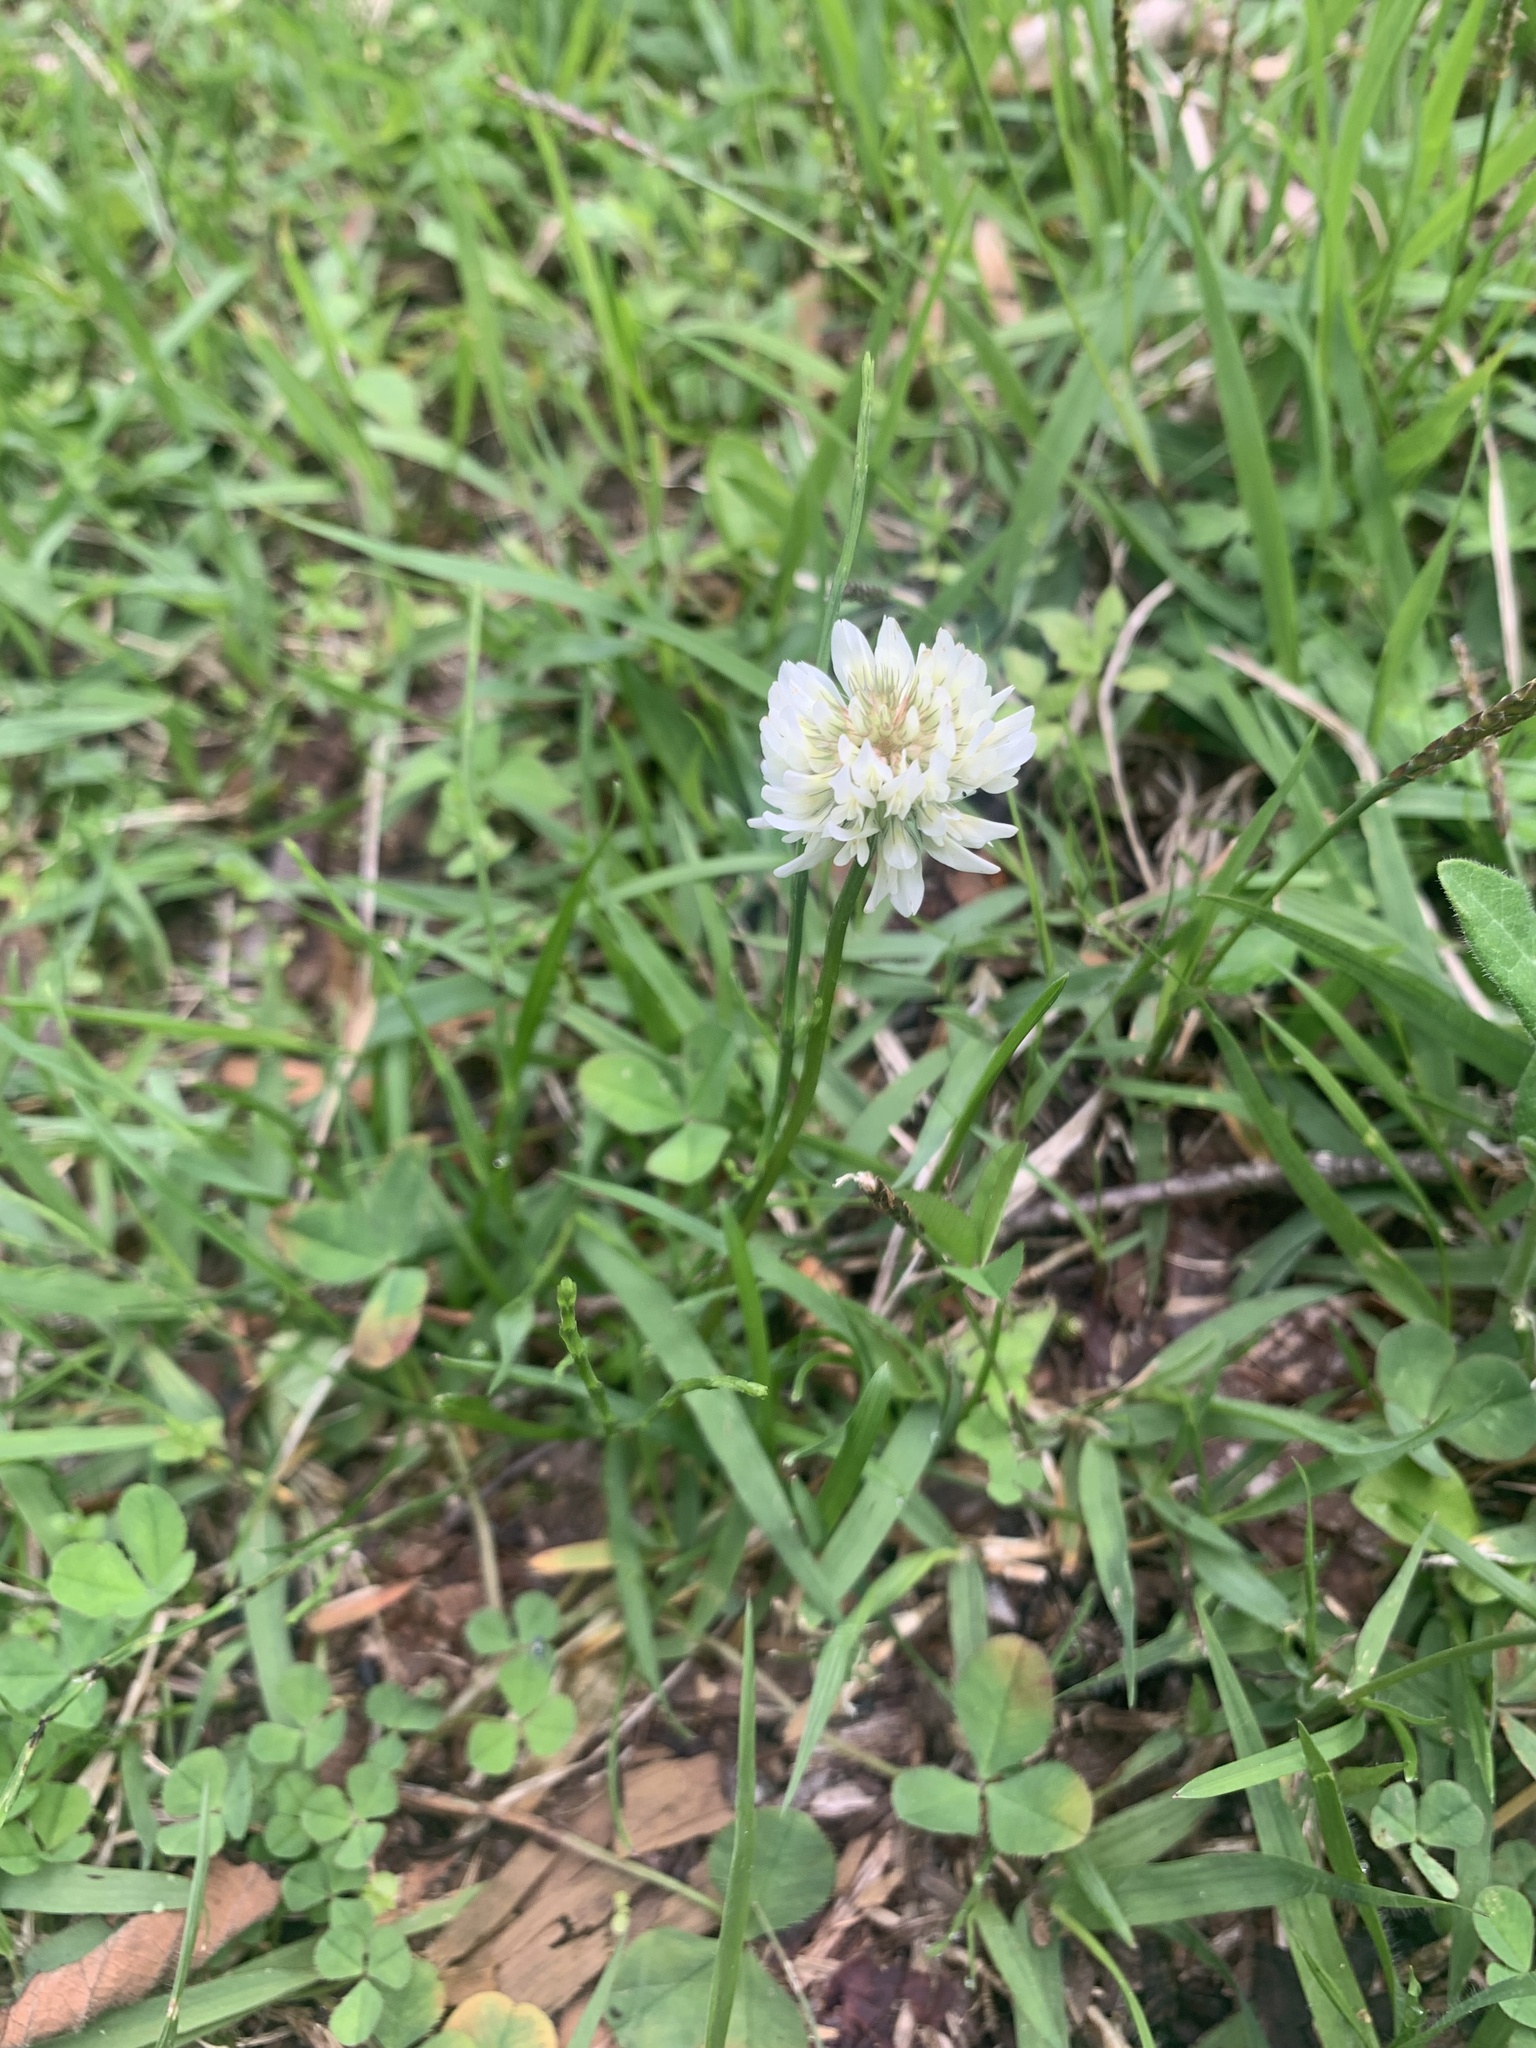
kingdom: Plantae
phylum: Tracheophyta
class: Magnoliopsida
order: Fabales
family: Fabaceae
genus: Trifolium
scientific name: Trifolium repens
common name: White clover
